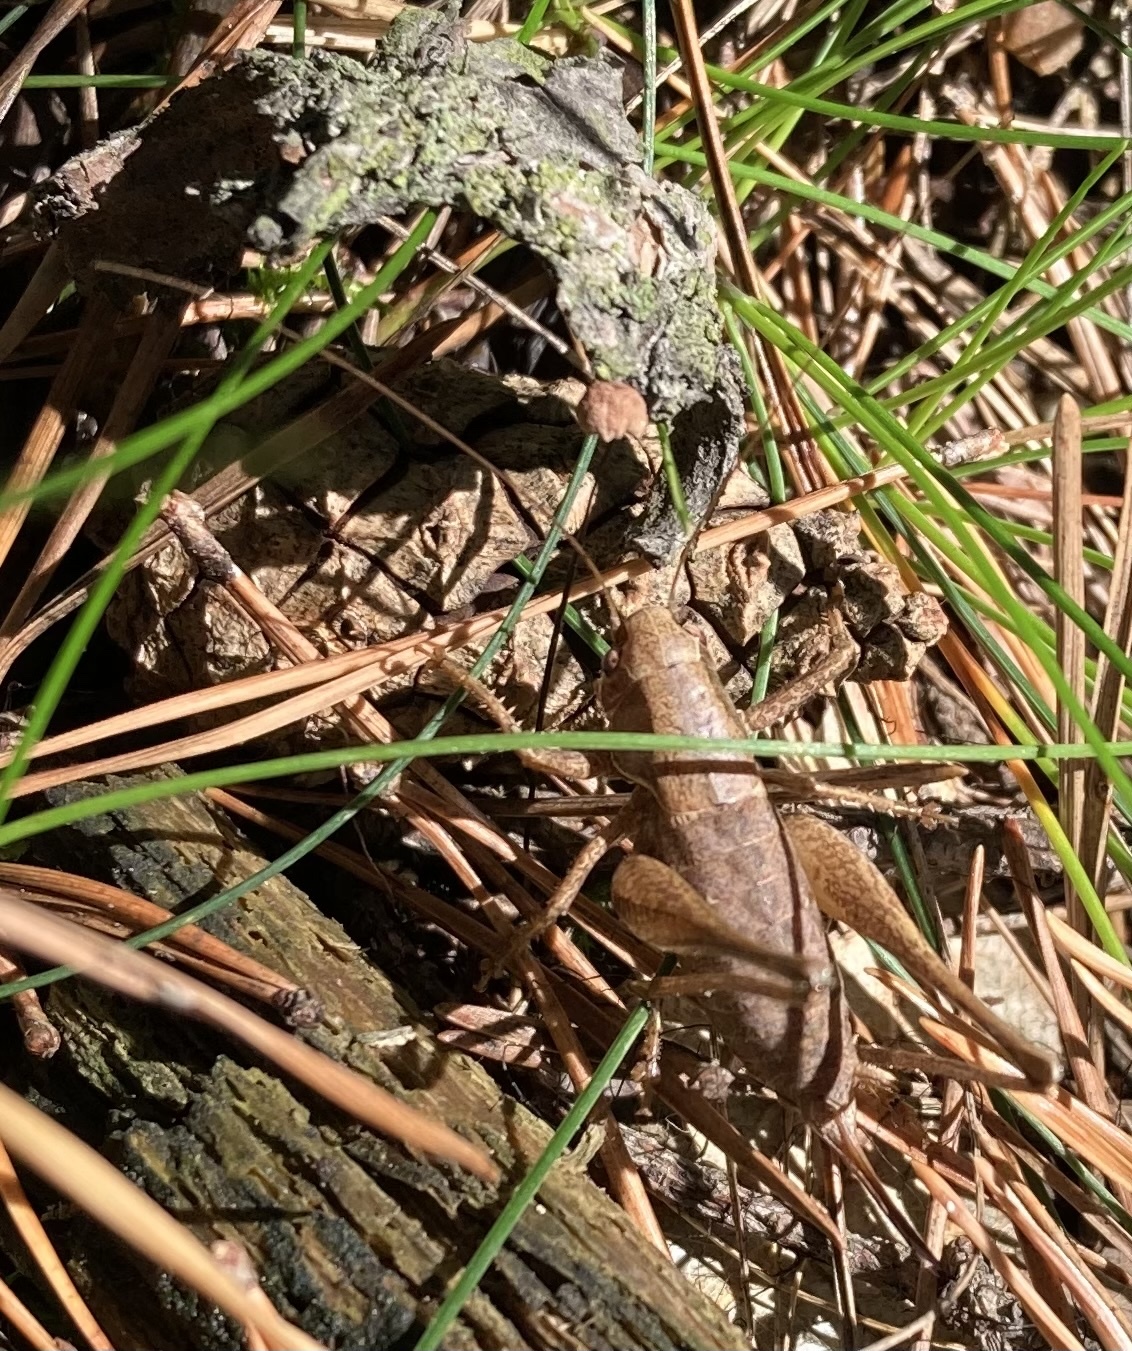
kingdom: Animalia
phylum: Arthropoda
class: Insecta
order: Orthoptera
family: Tettigoniidae
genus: Pholidoptera
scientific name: Pholidoptera griseoaptera
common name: Dark bush-cricket
